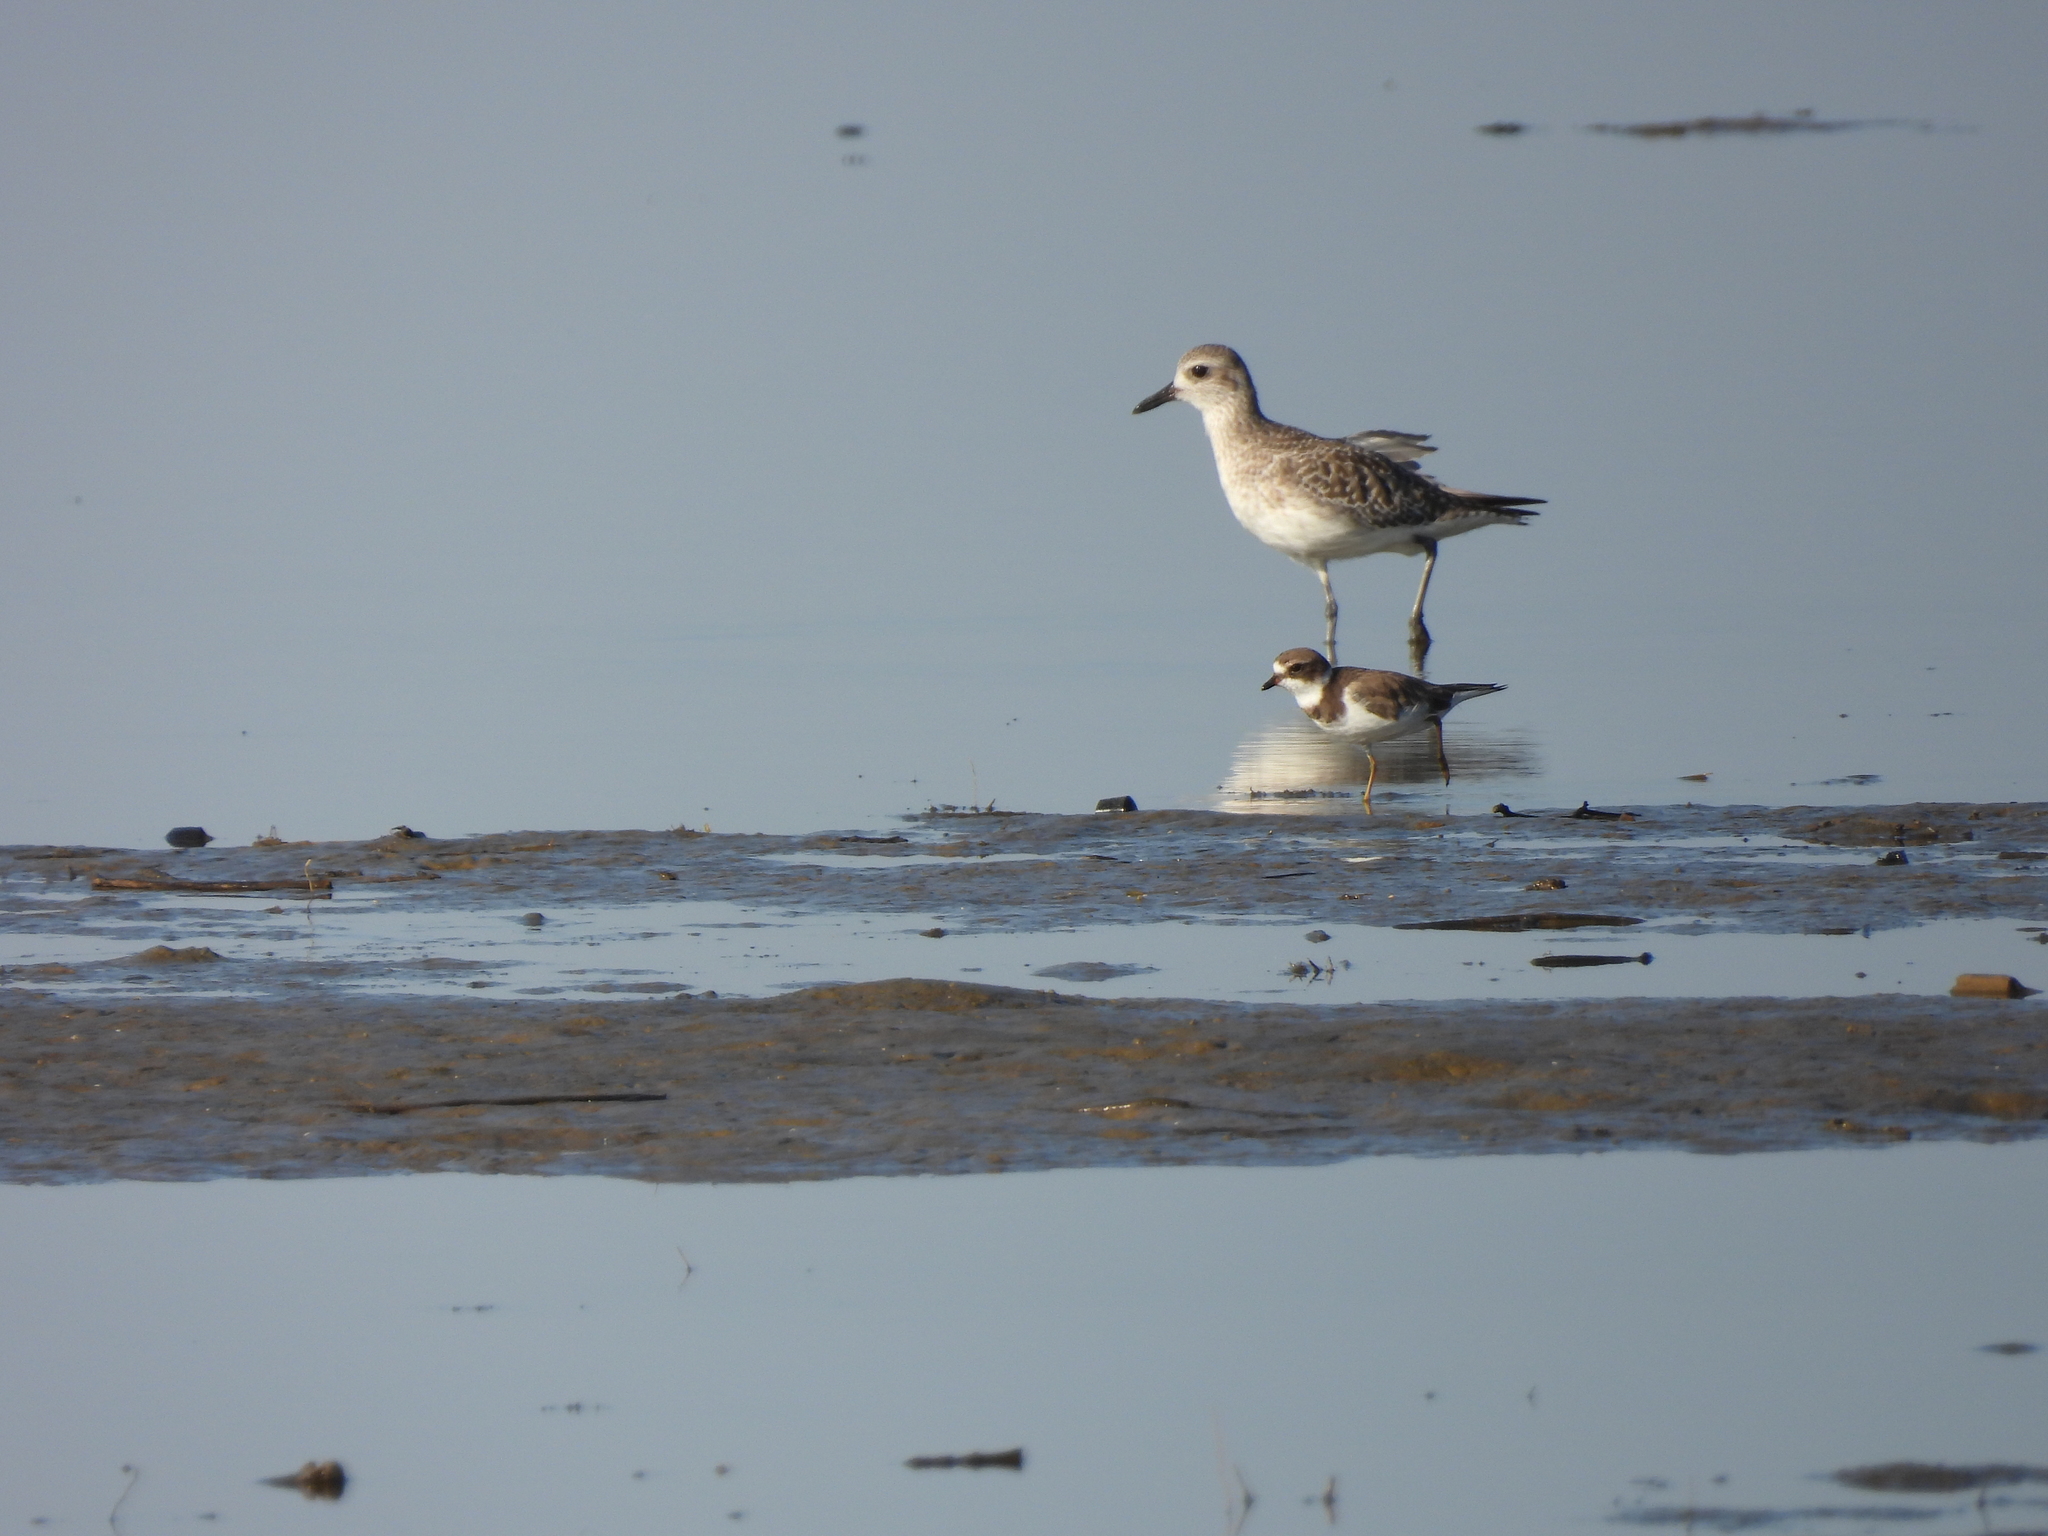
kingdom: Animalia
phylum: Chordata
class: Aves
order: Charadriiformes
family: Charadriidae
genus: Charadrius
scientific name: Charadrius semipalmatus
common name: Semipalmated plover
